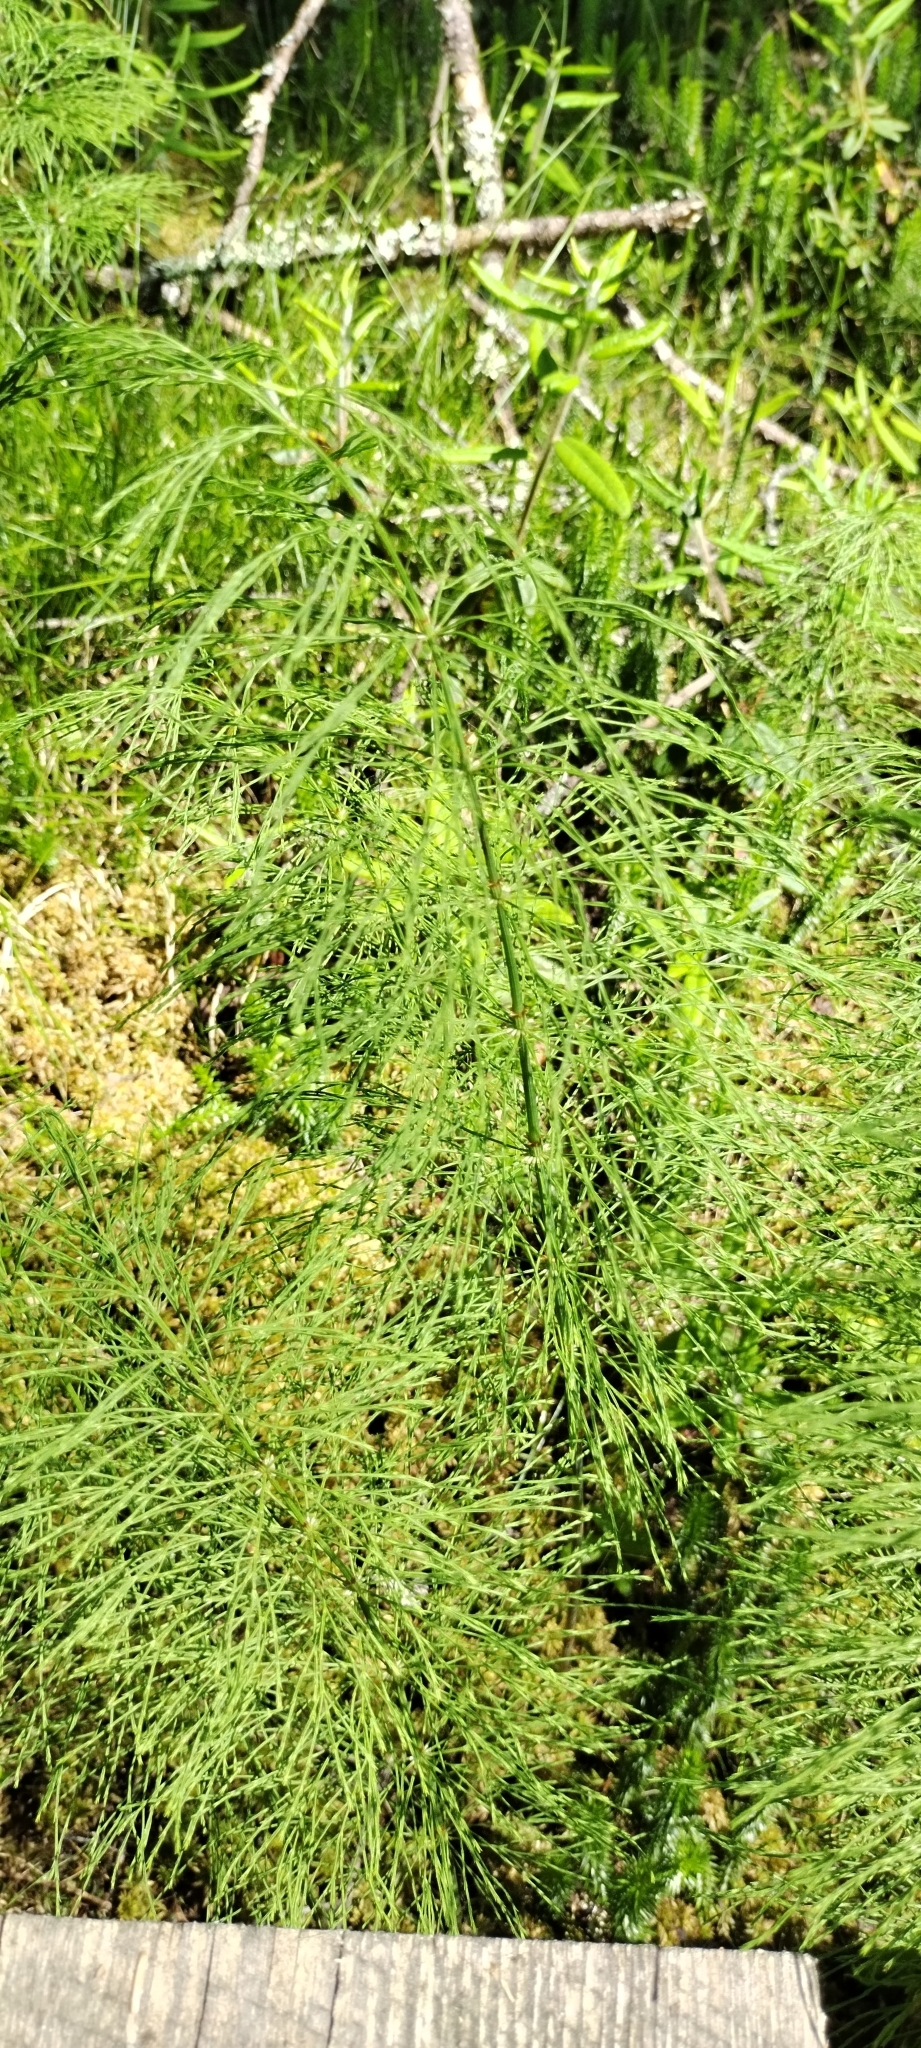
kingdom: Plantae
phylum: Tracheophyta
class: Polypodiopsida
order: Equisetales
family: Equisetaceae
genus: Equisetum
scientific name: Equisetum sylvaticum
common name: Wood horsetail
